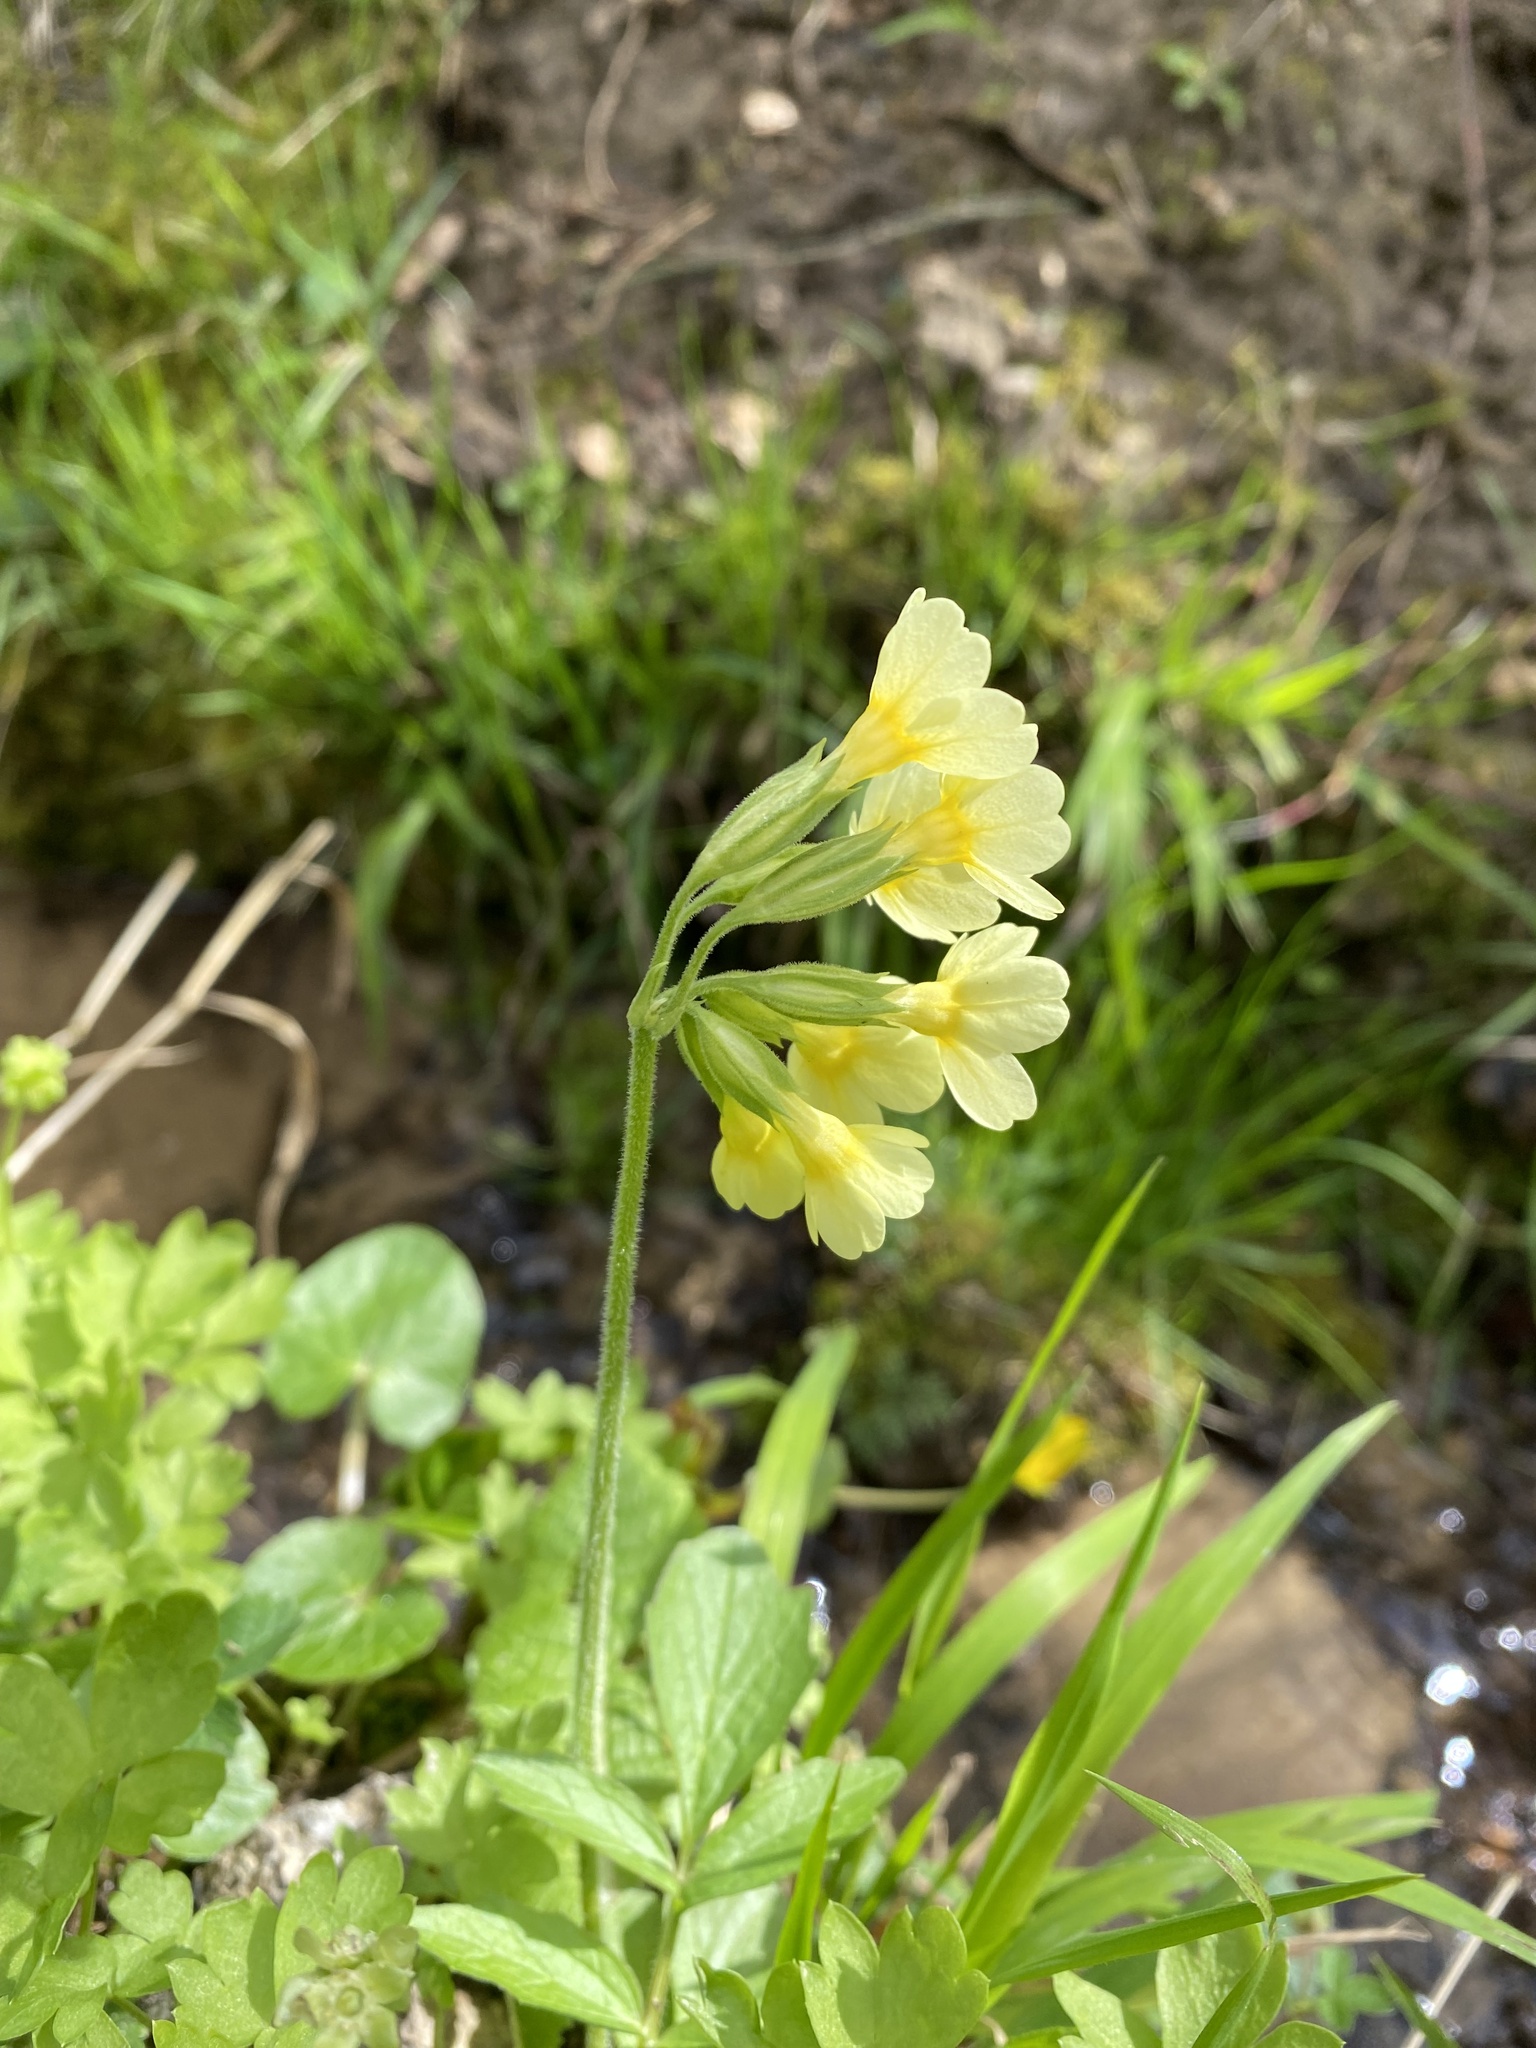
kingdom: Plantae
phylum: Tracheophyta
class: Magnoliopsida
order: Ericales
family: Primulaceae
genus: Primula
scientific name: Primula elatior
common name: Oxlip
